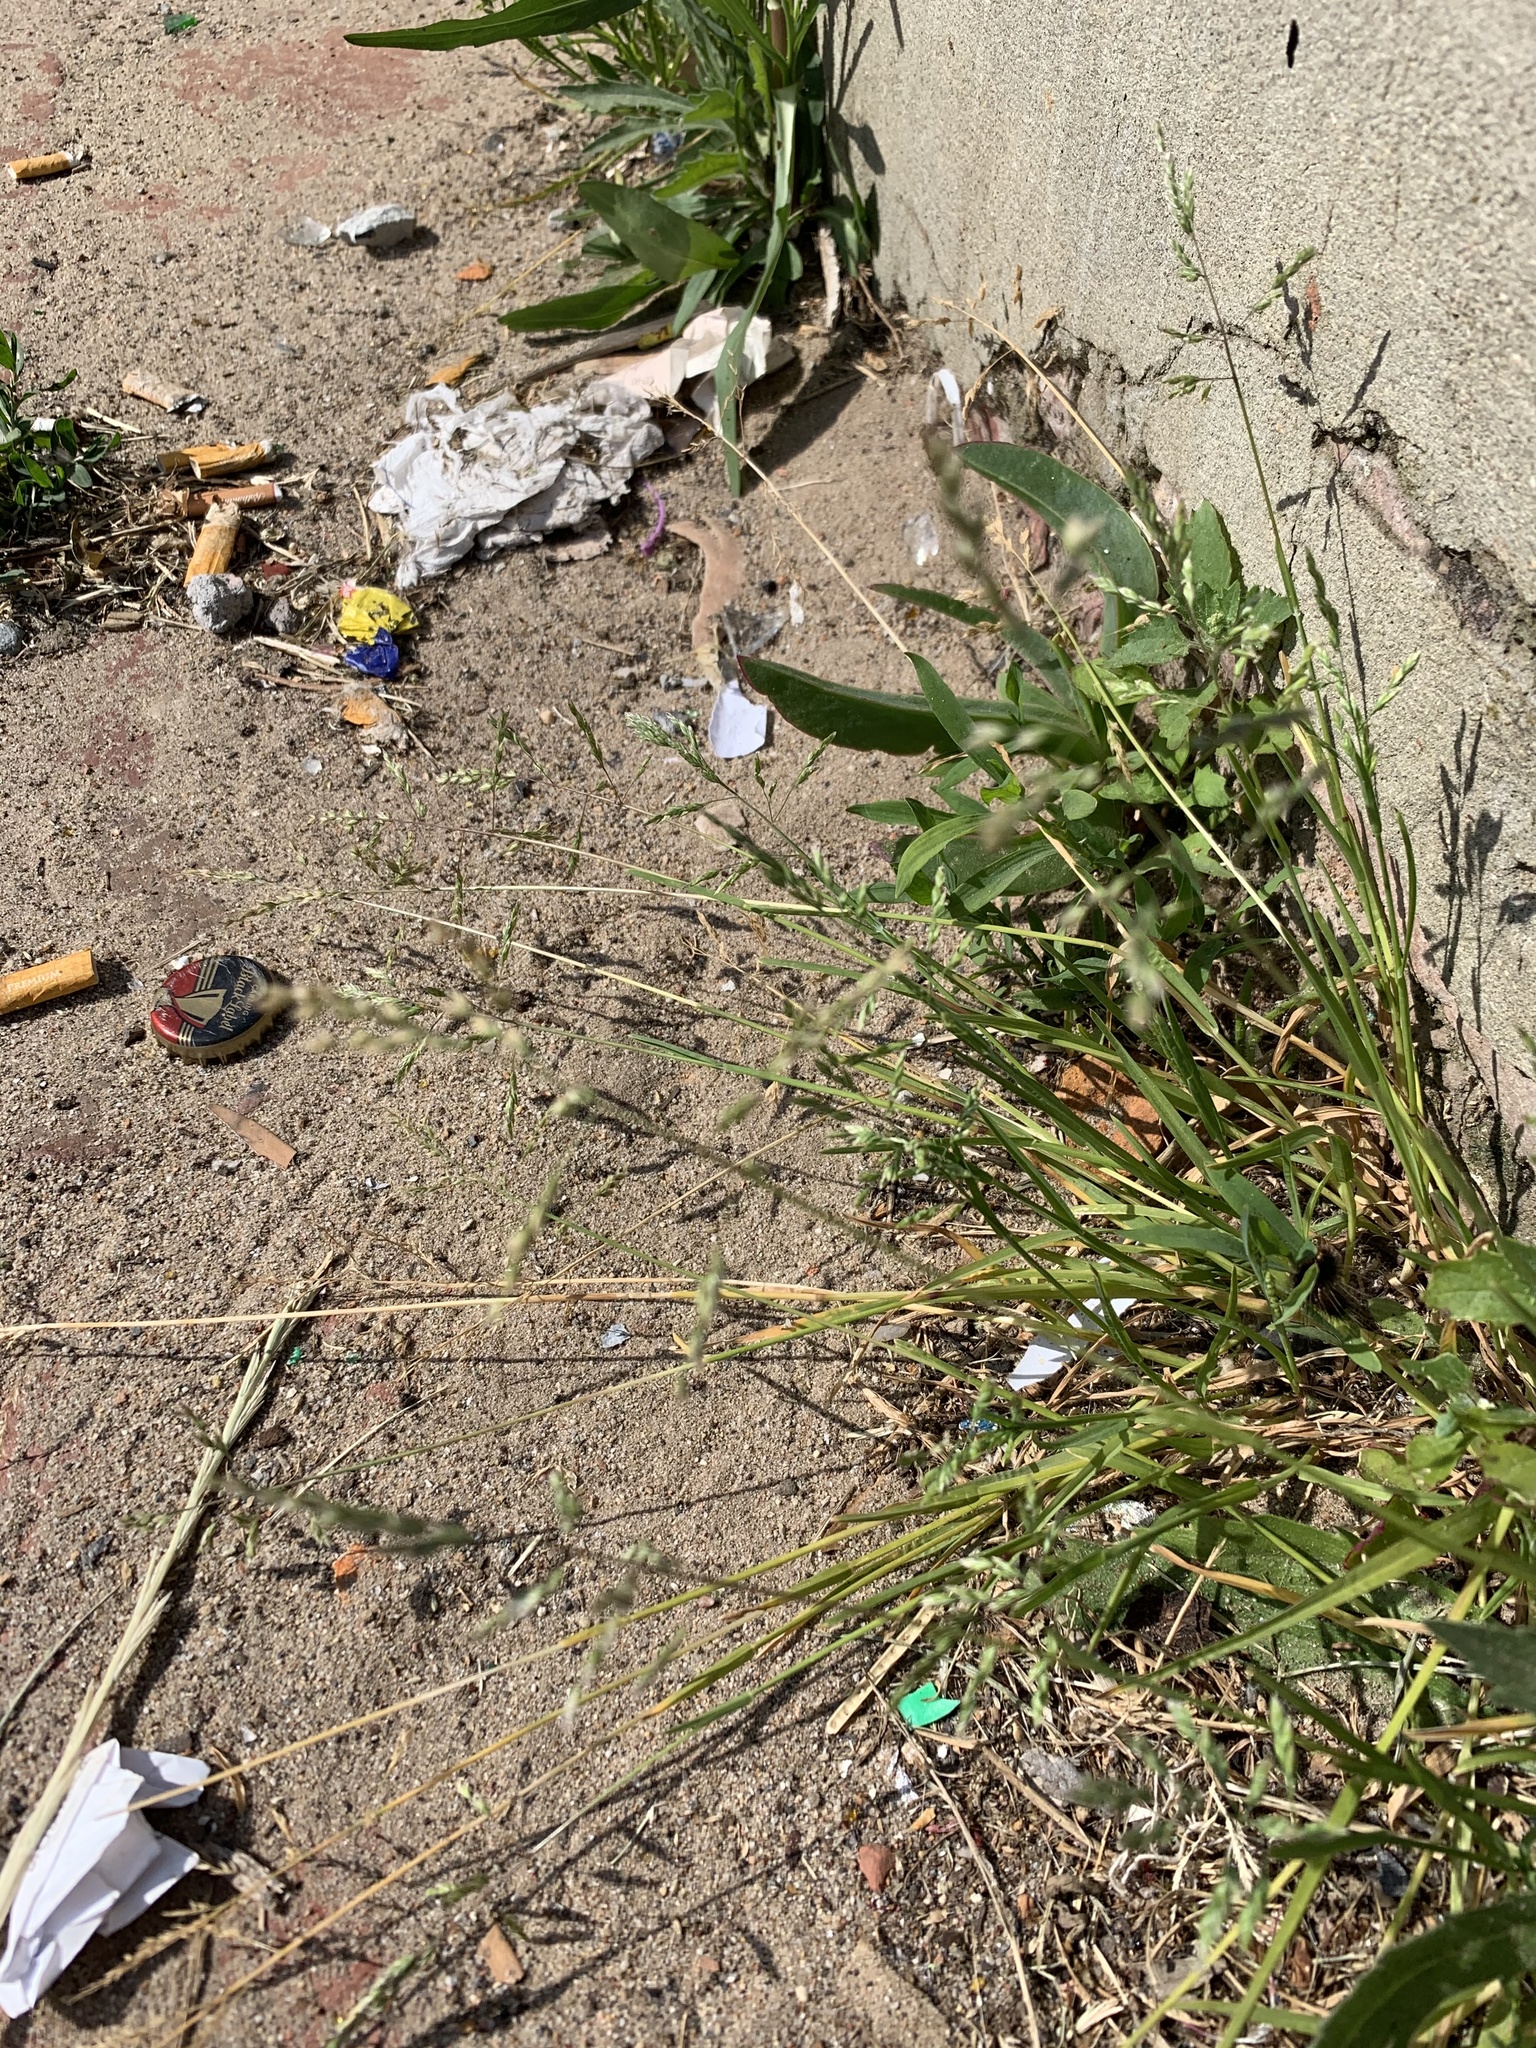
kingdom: Plantae
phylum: Tracheophyta
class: Liliopsida
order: Poales
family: Poaceae
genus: Poa
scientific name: Poa annua
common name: Annual bluegrass
